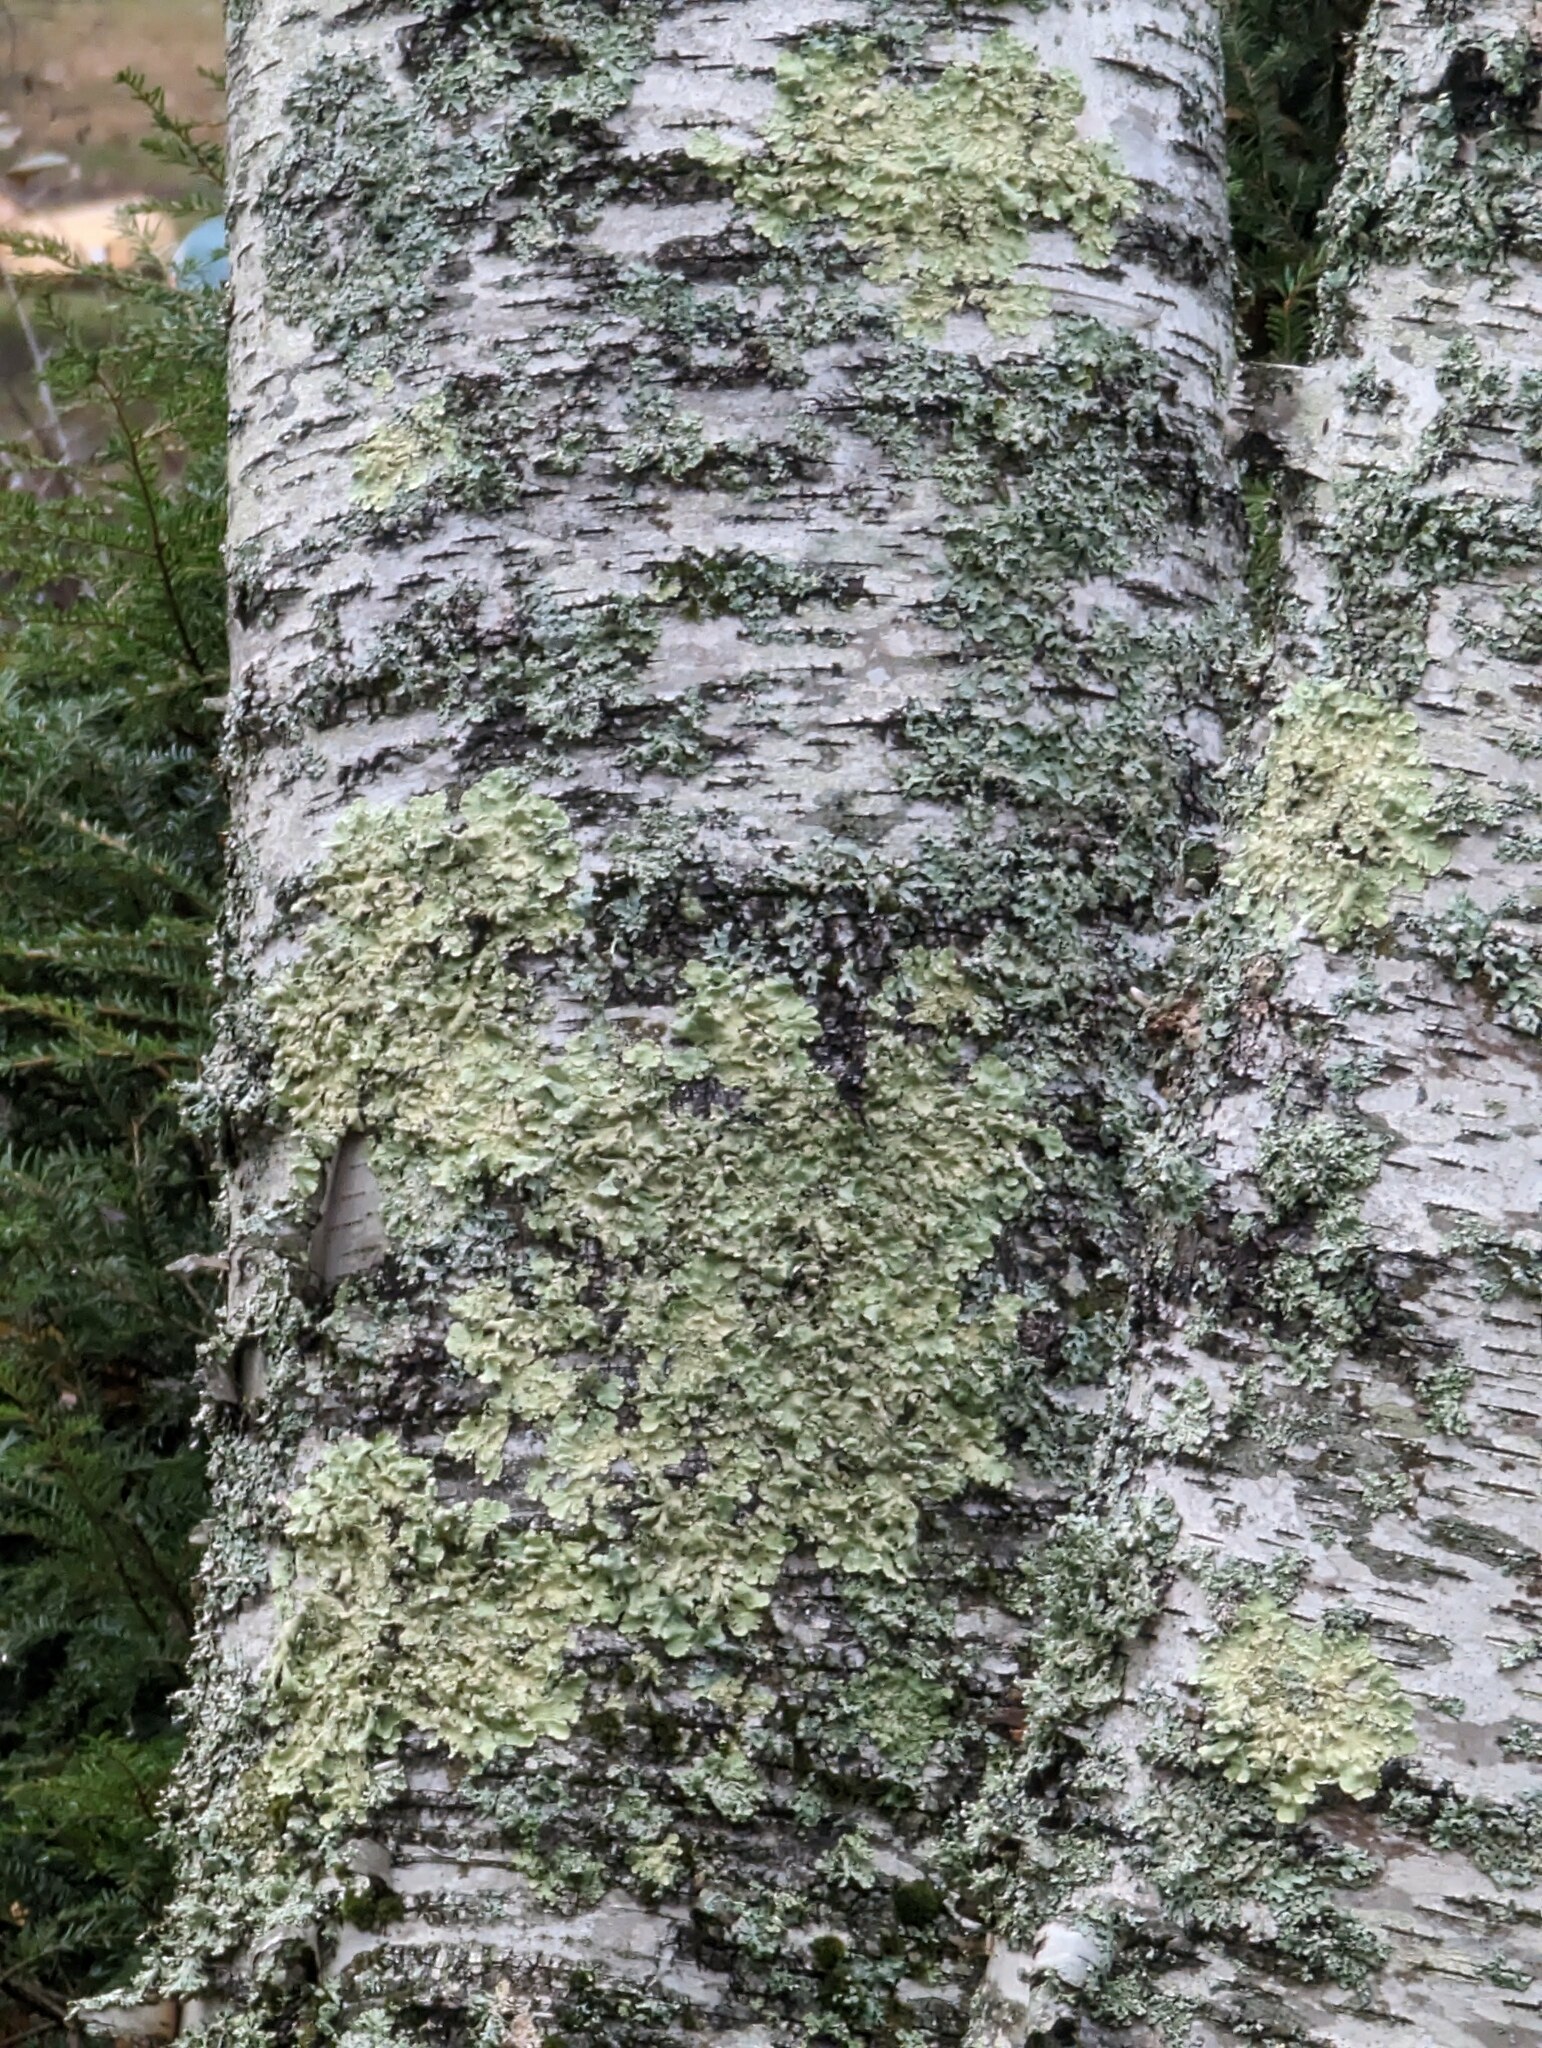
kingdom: Fungi
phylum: Ascomycota
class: Lecanoromycetes
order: Lecanorales
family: Parmeliaceae
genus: Flavoparmelia
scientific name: Flavoparmelia caperata
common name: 40-mile per hour lichen
